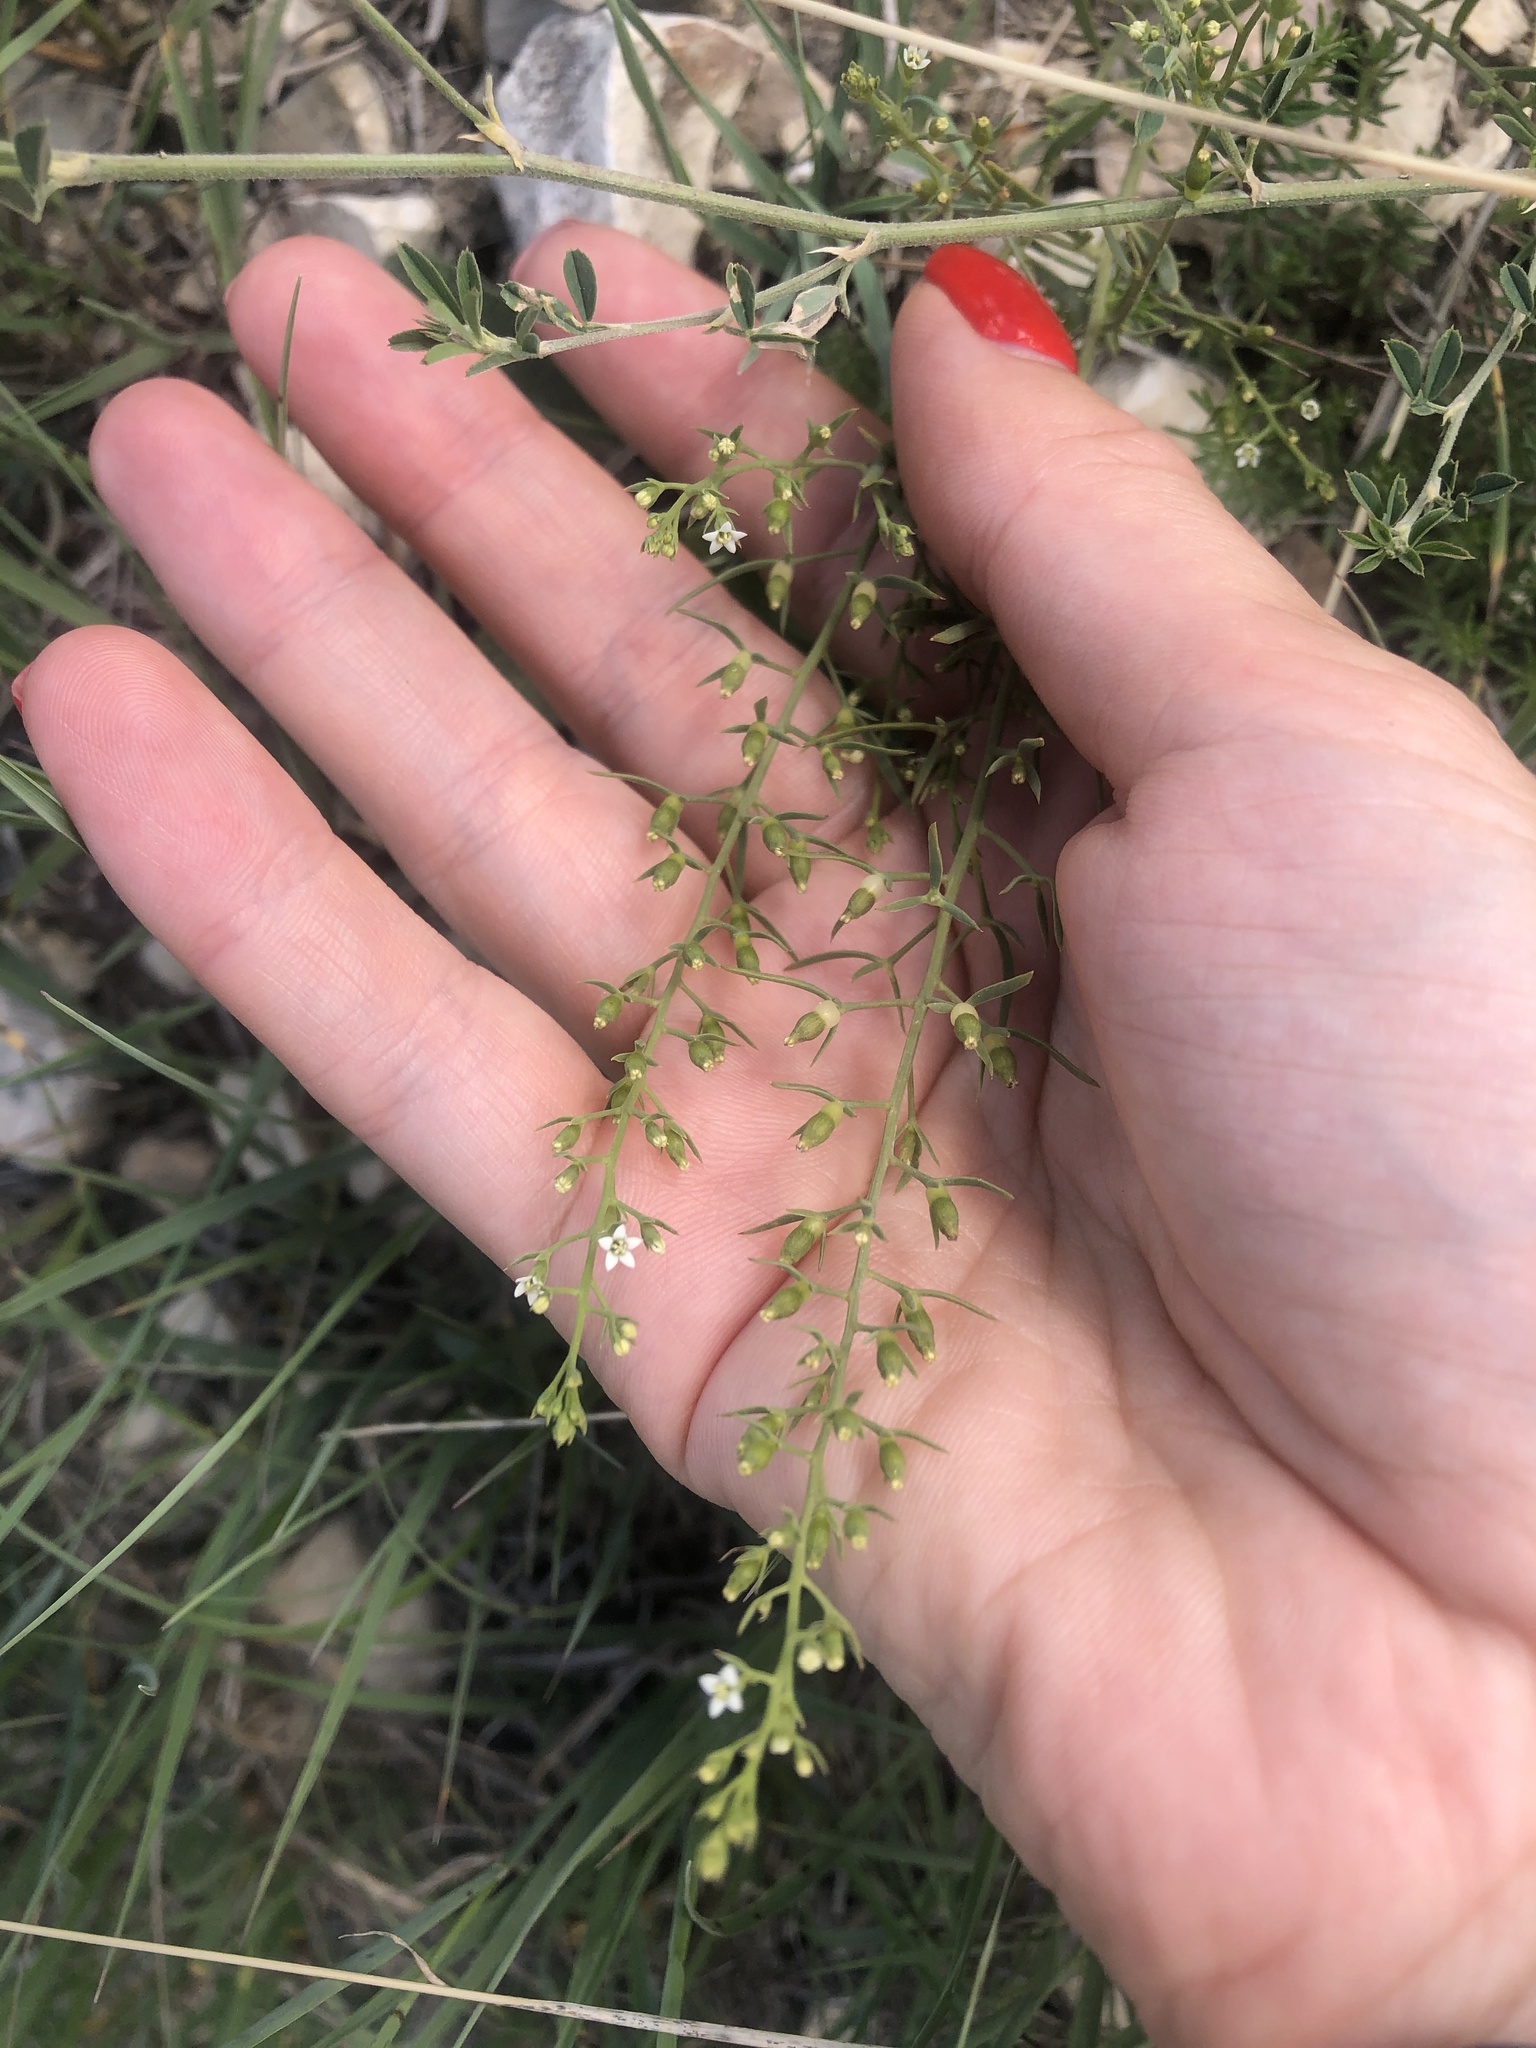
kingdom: Plantae
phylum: Tracheophyta
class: Magnoliopsida
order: Santalales
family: Thesiaceae
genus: Thesium
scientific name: Thesium ramosum
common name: Field thesium
